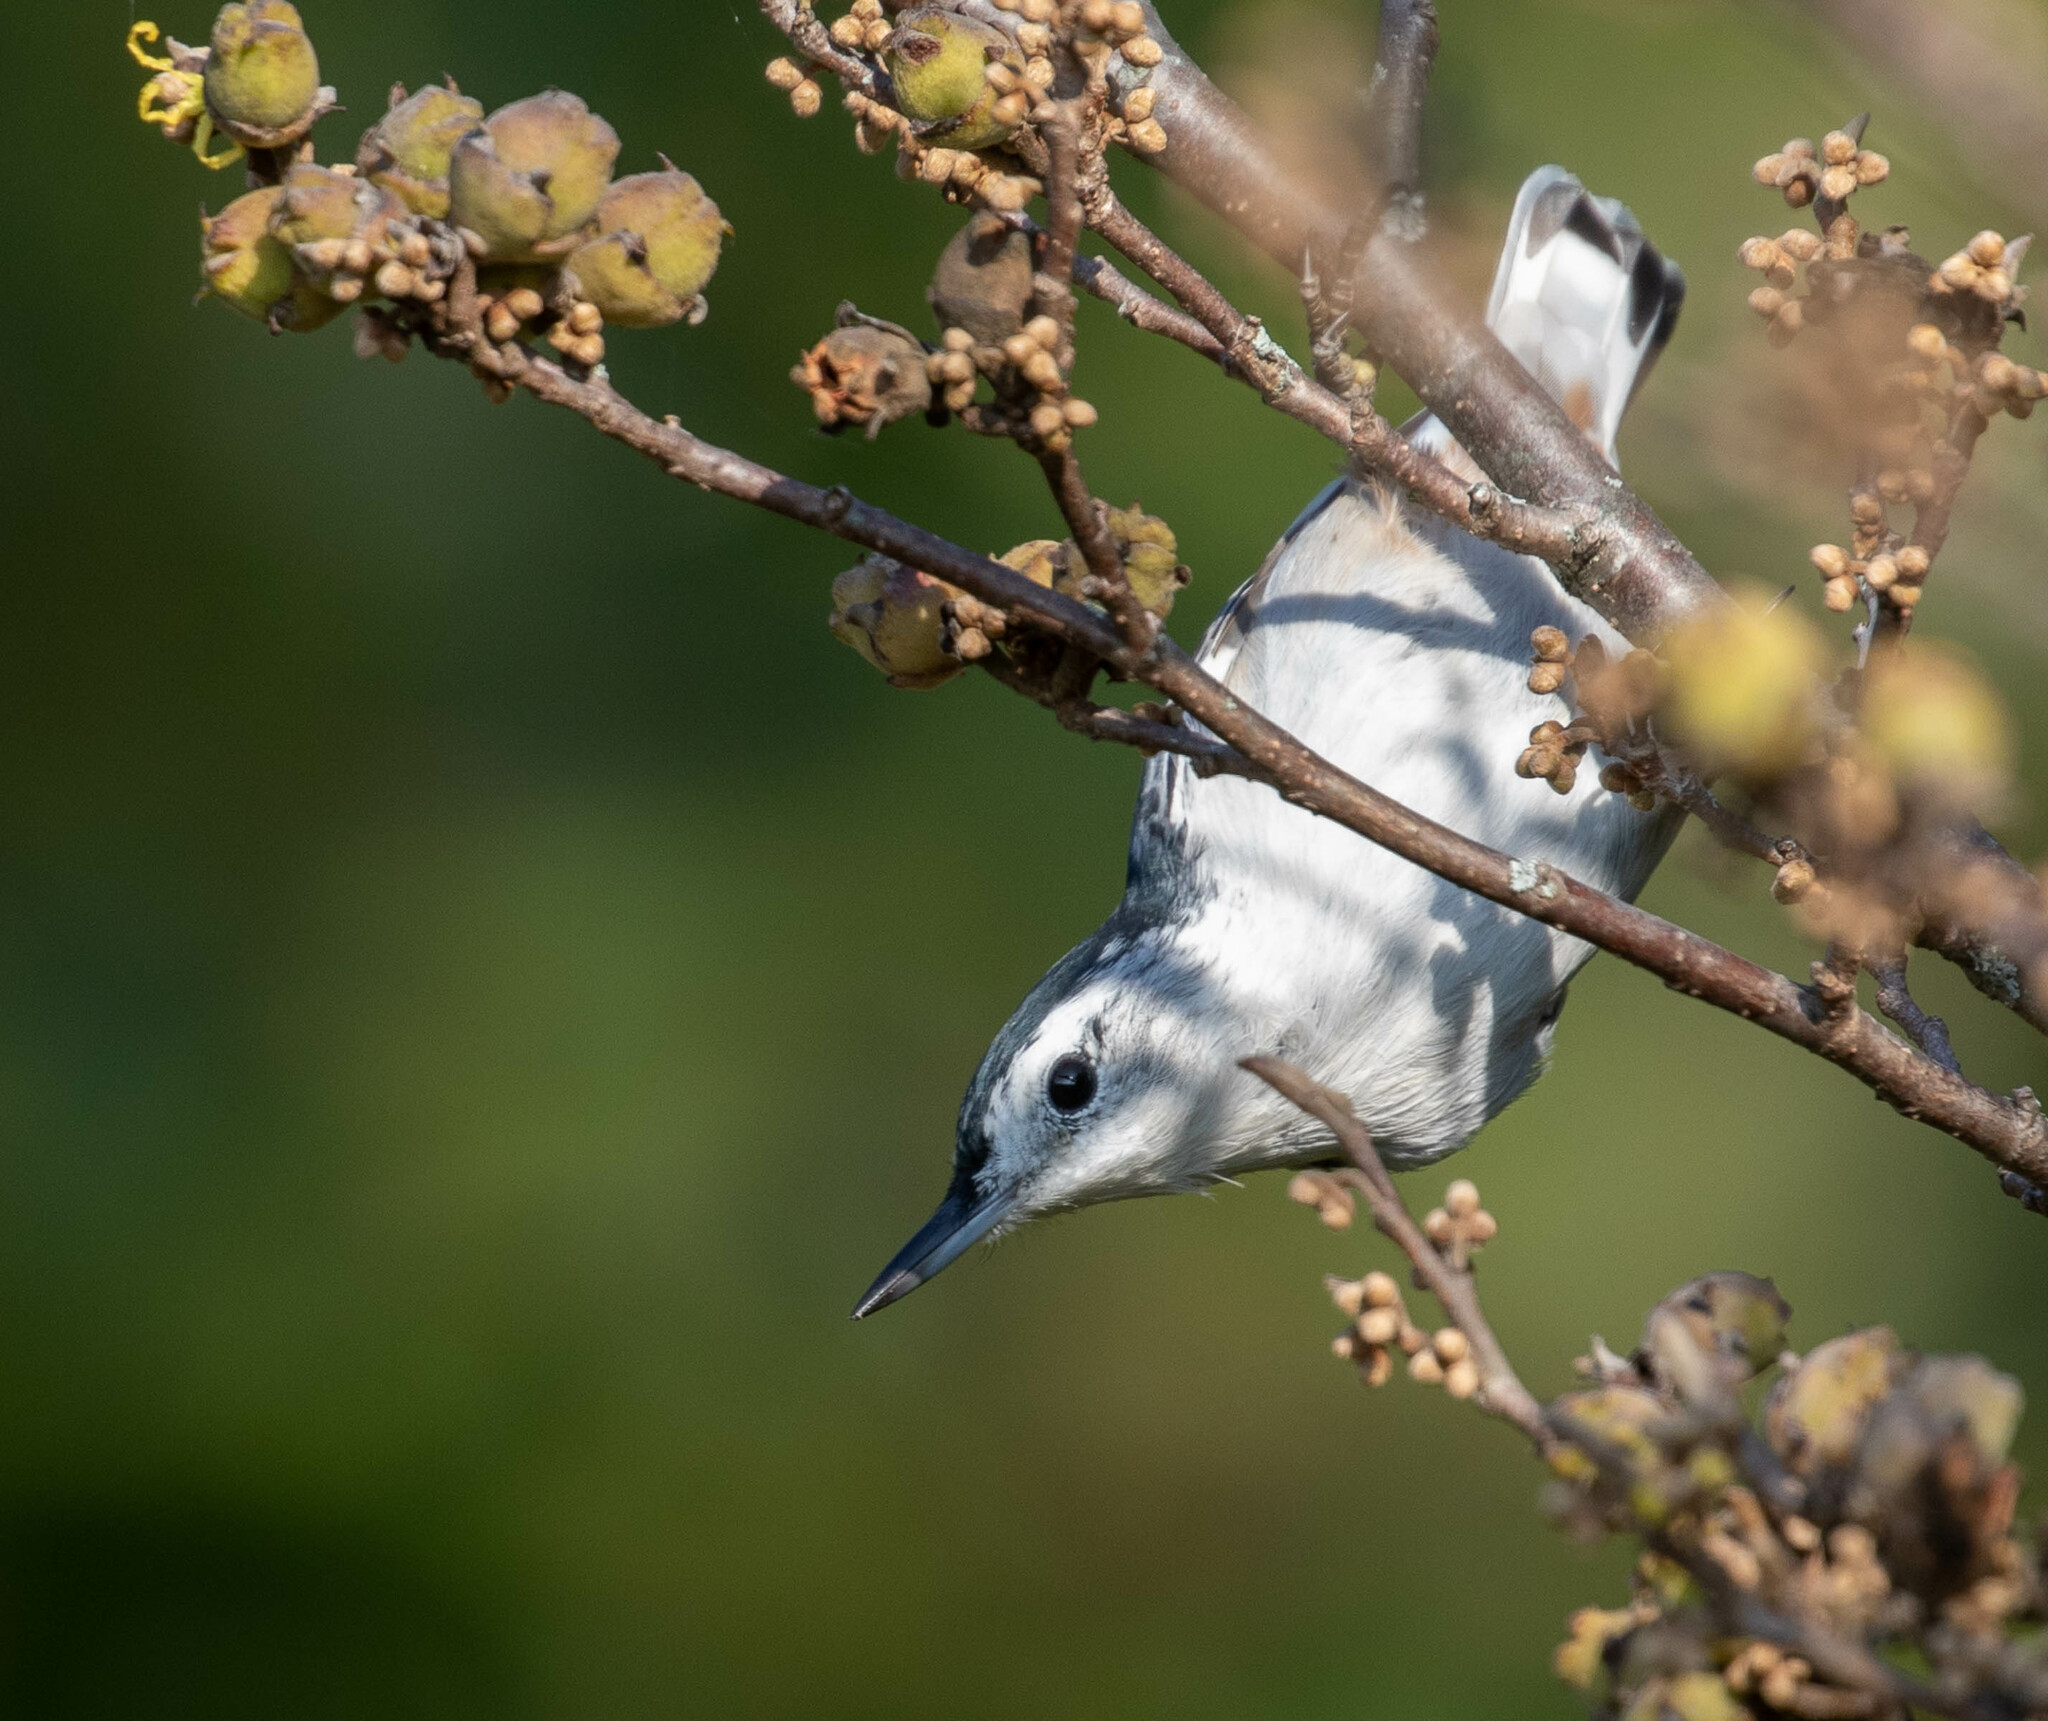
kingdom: Animalia
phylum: Chordata
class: Aves
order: Passeriformes
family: Sittidae
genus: Sitta
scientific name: Sitta carolinensis
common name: White-breasted nuthatch
